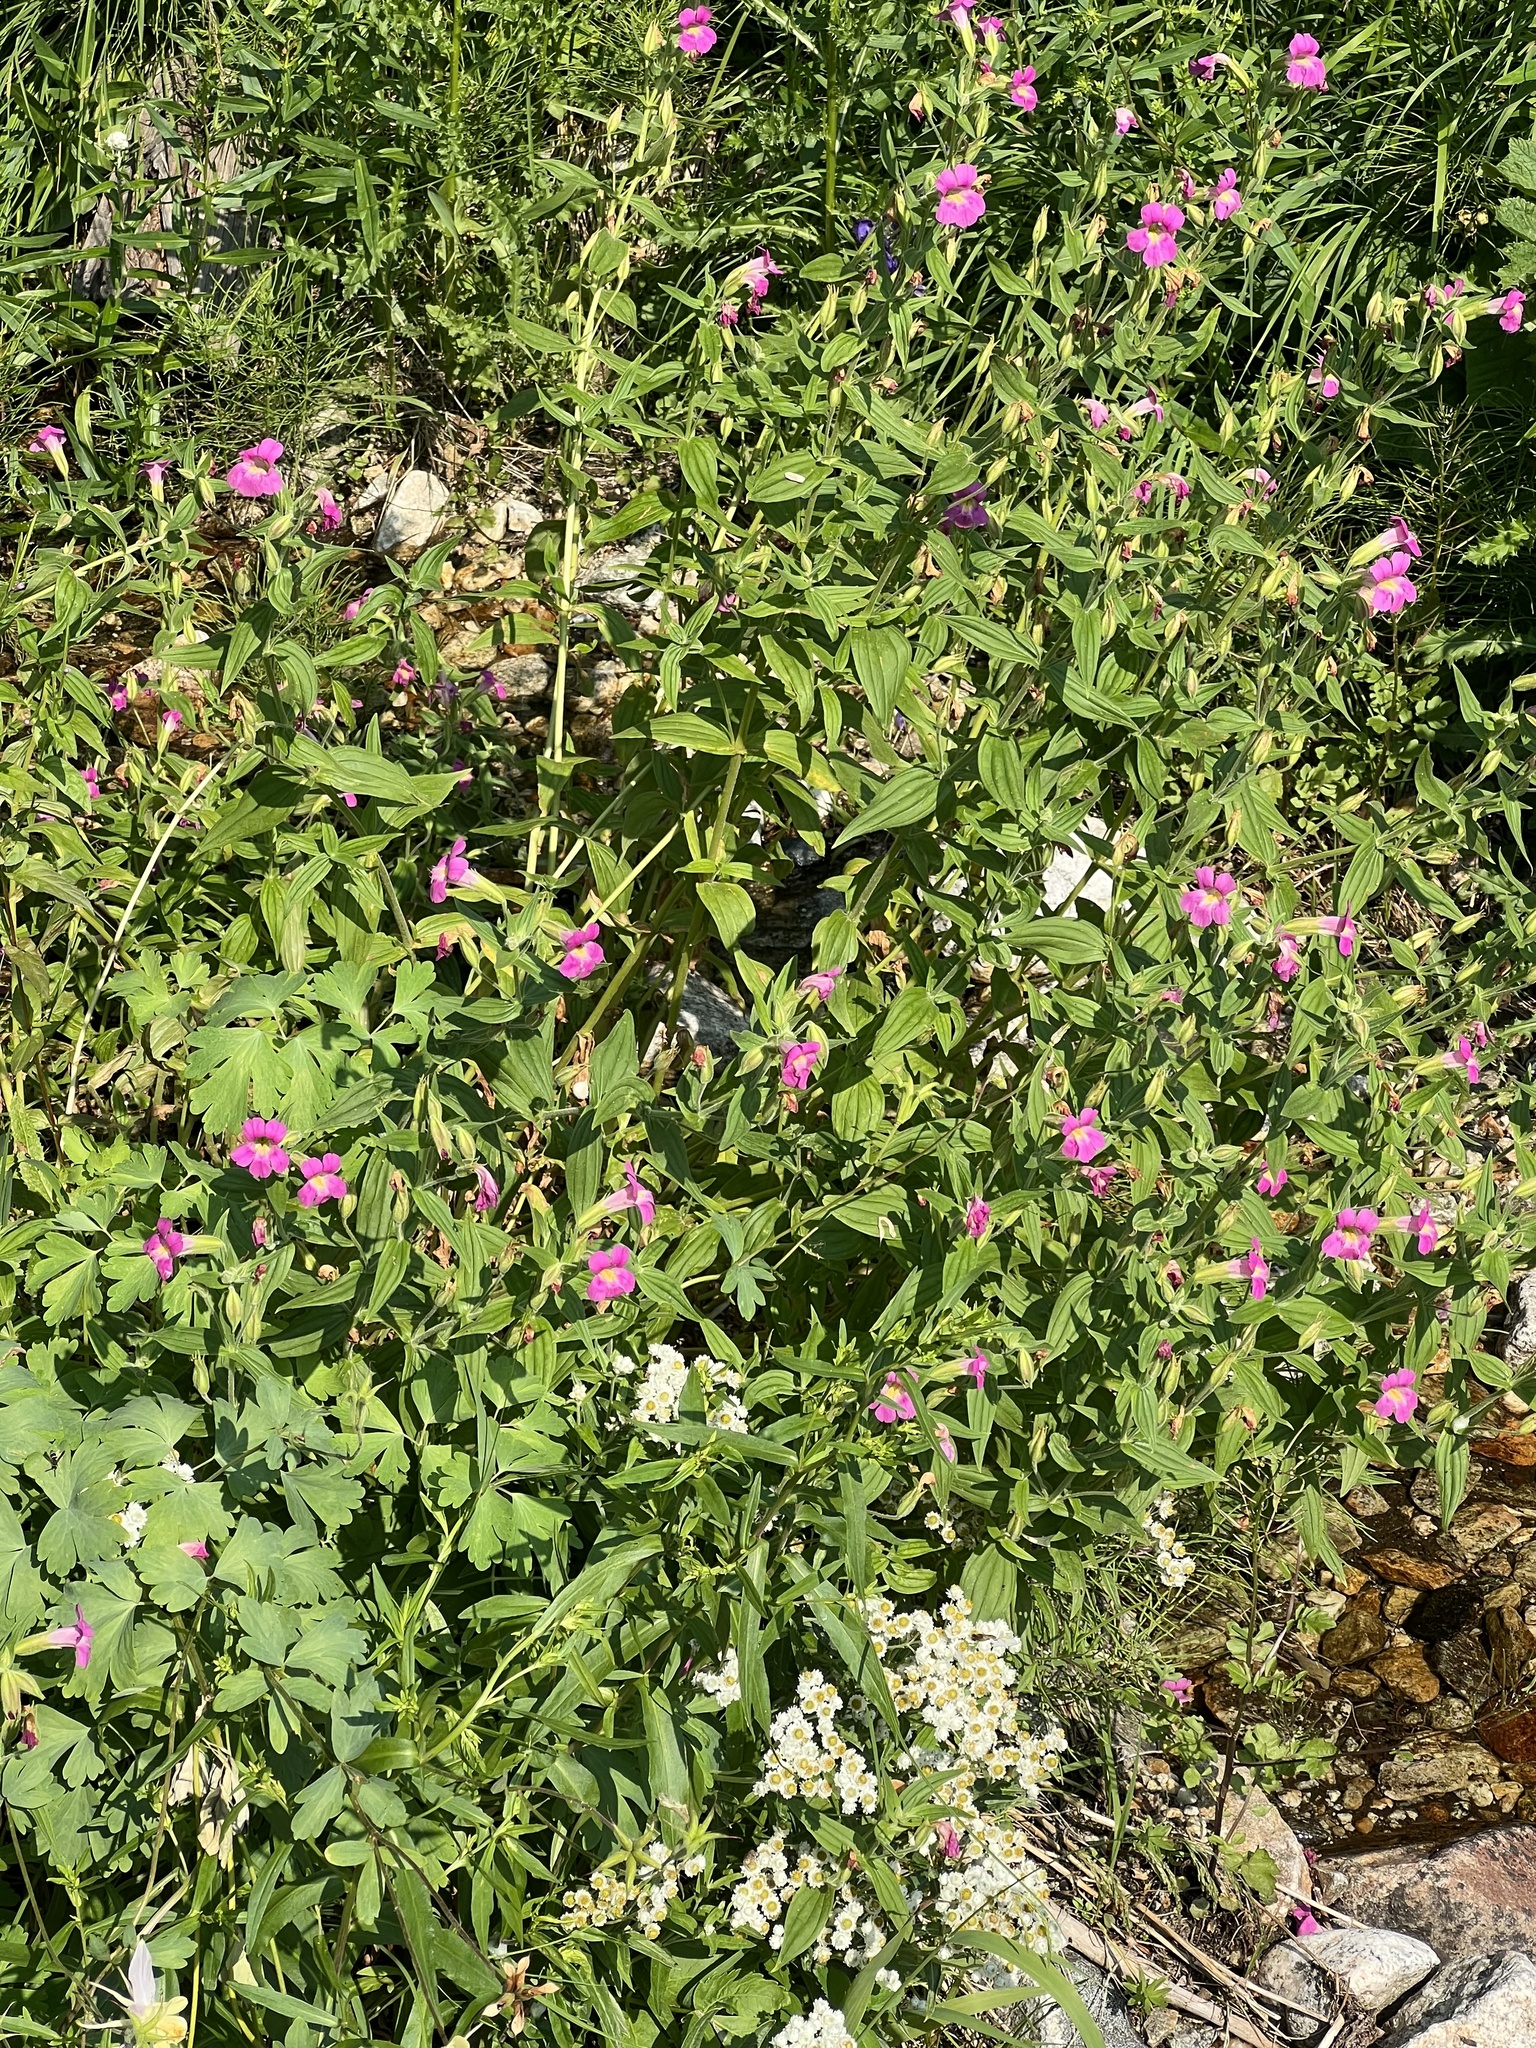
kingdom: Plantae
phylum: Tracheophyta
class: Magnoliopsida
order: Lamiales
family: Phrymaceae
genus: Erythranthe
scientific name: Erythranthe lewisii
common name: Lewis's monkey-flower
